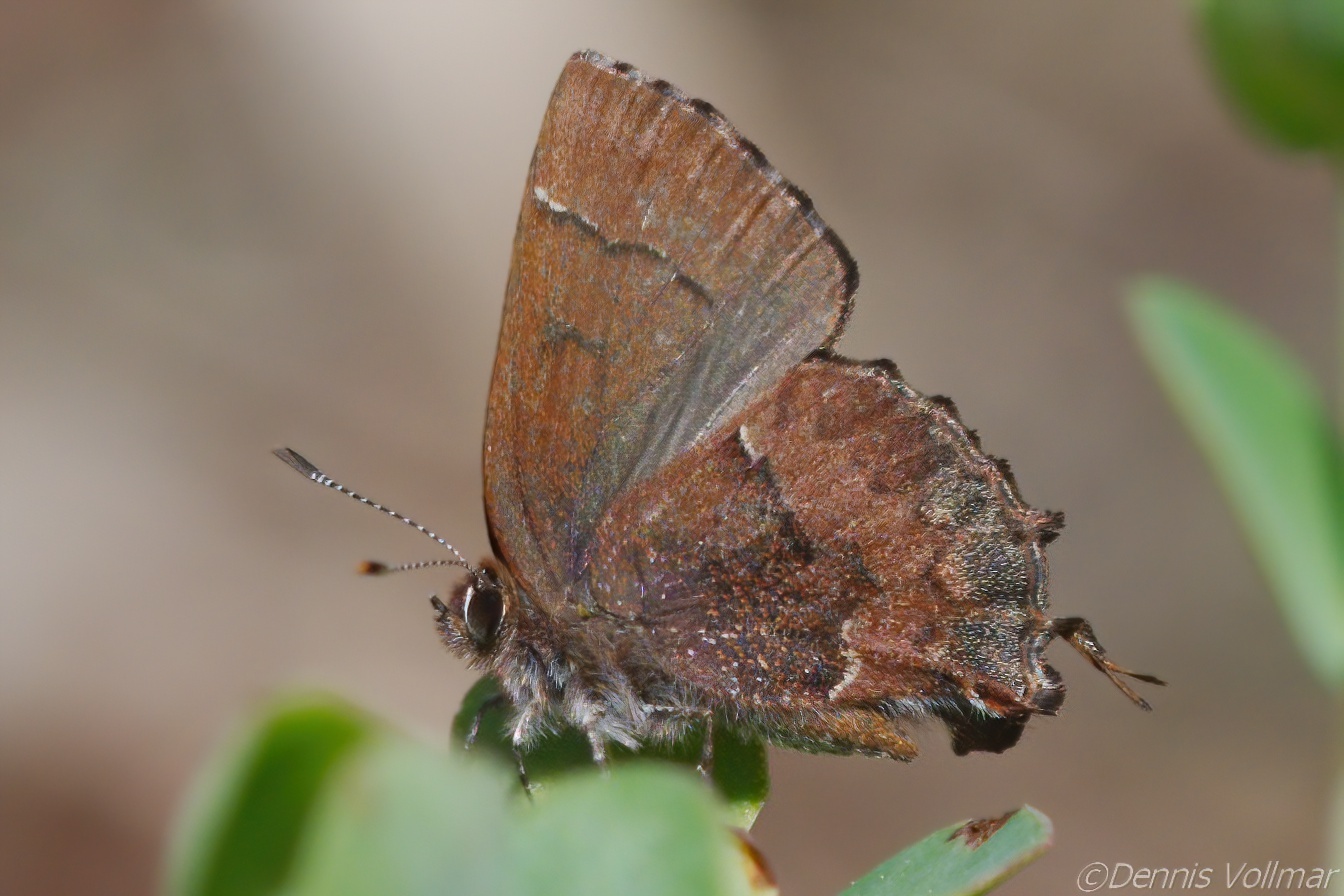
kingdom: Animalia
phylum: Arthropoda
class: Insecta
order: Lepidoptera
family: Lycaenidae
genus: Incisalia
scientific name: Incisalia henrici
